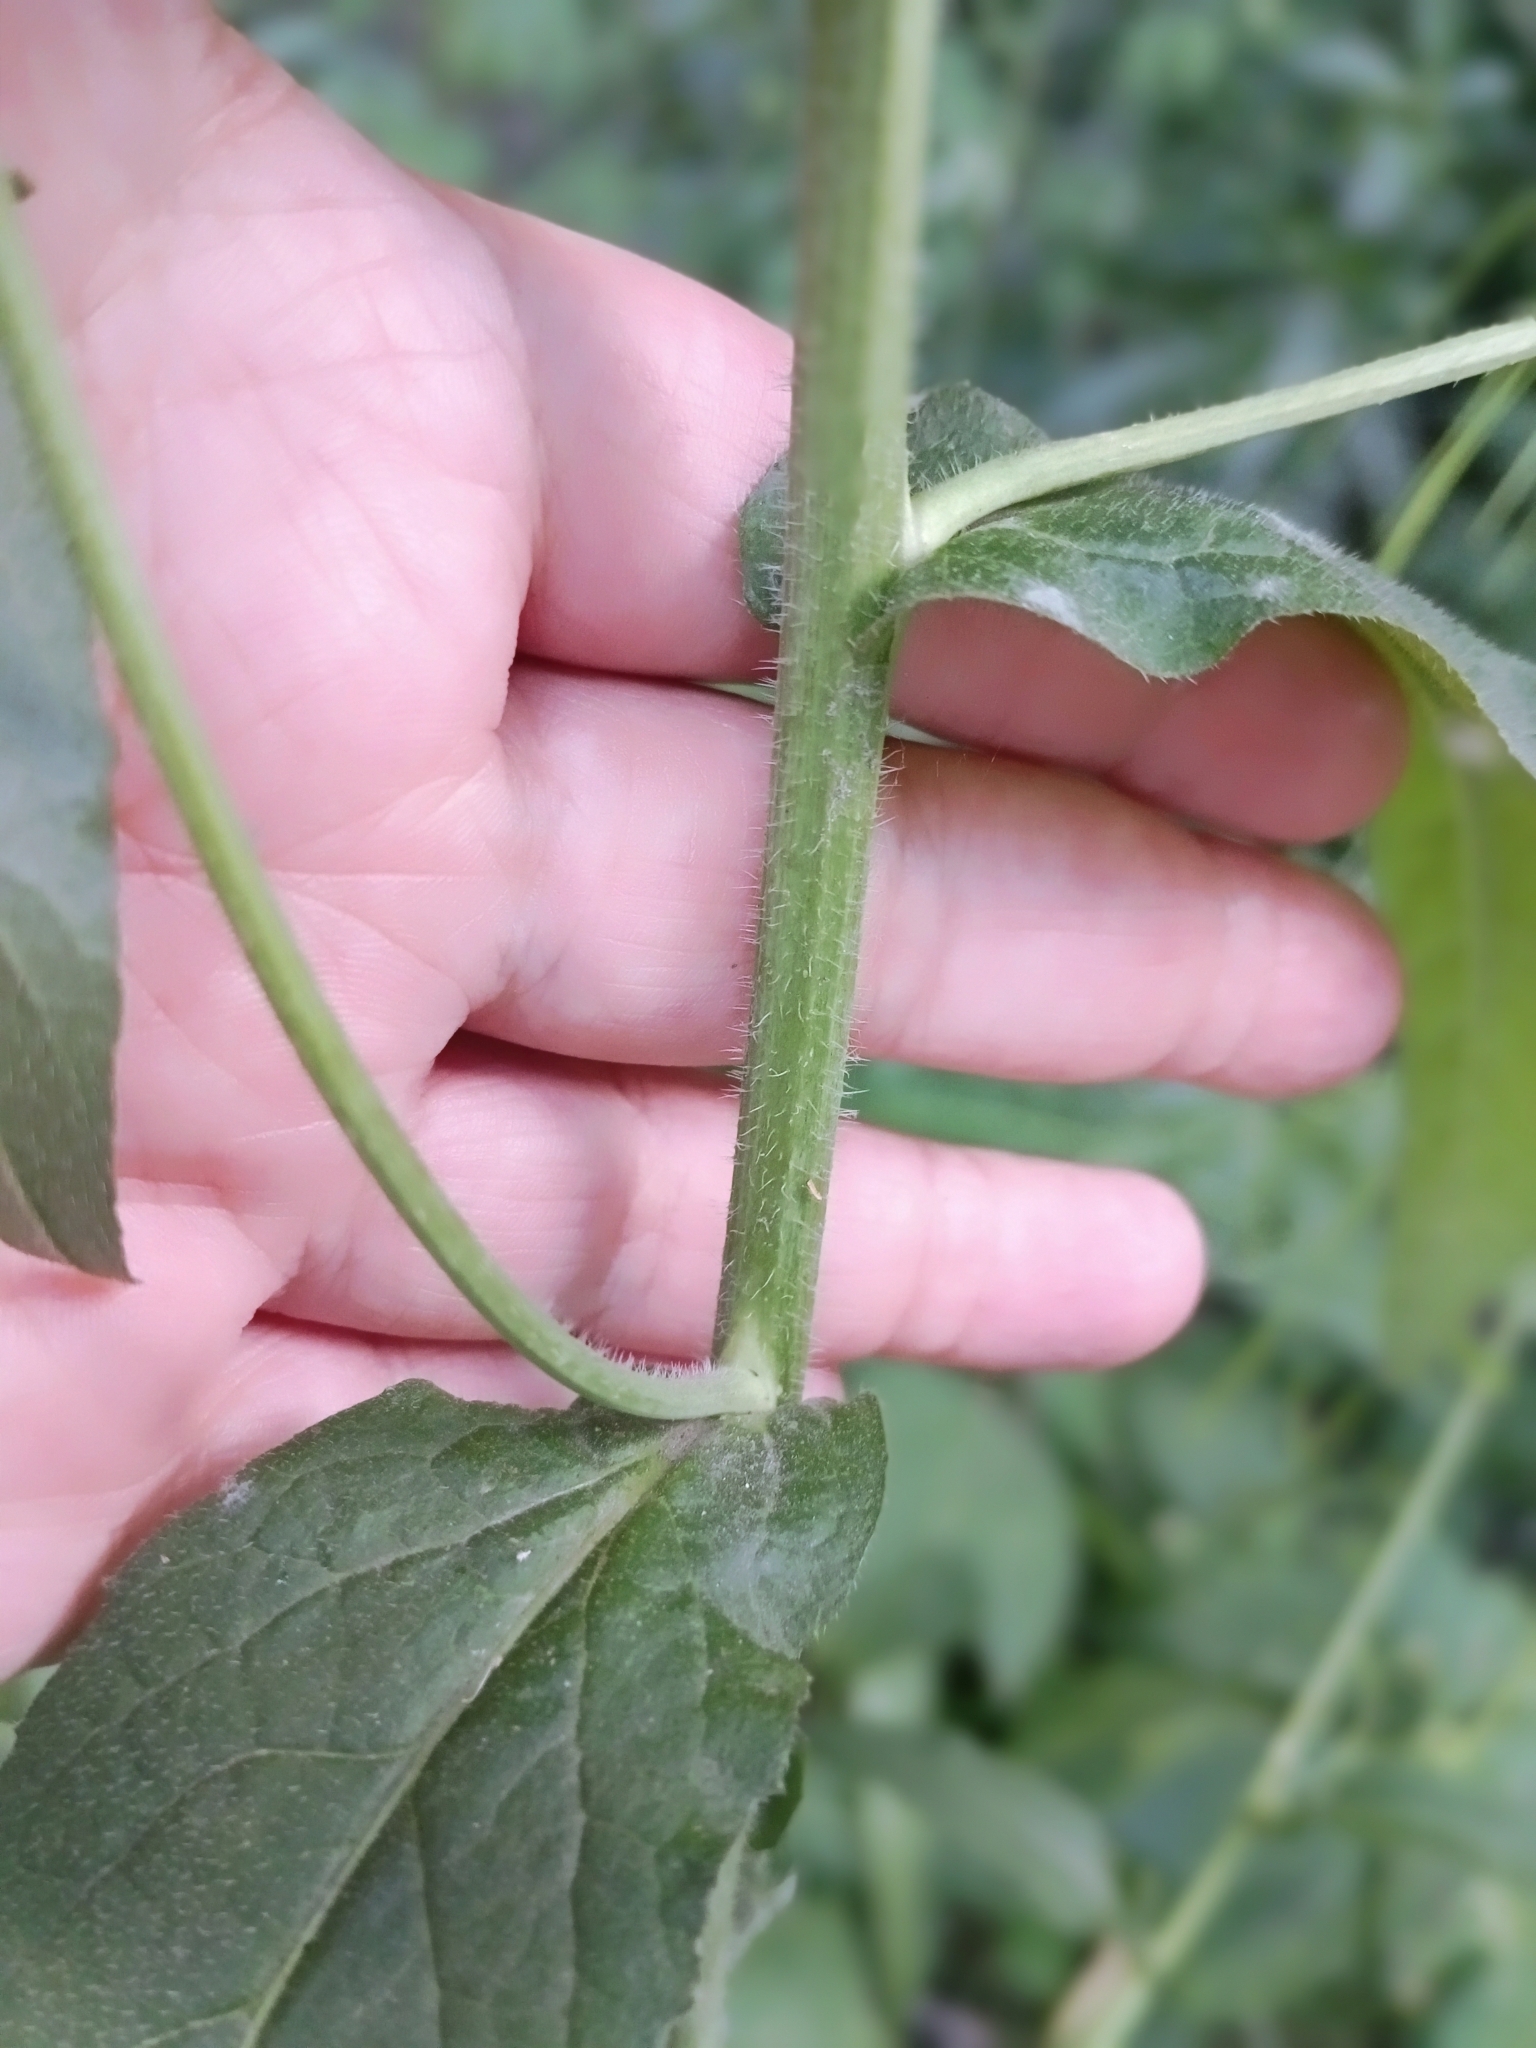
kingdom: Plantae
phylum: Tracheophyta
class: Magnoliopsida
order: Brassicales
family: Brassicaceae
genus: Catolobus
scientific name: Catolobus pendulus
